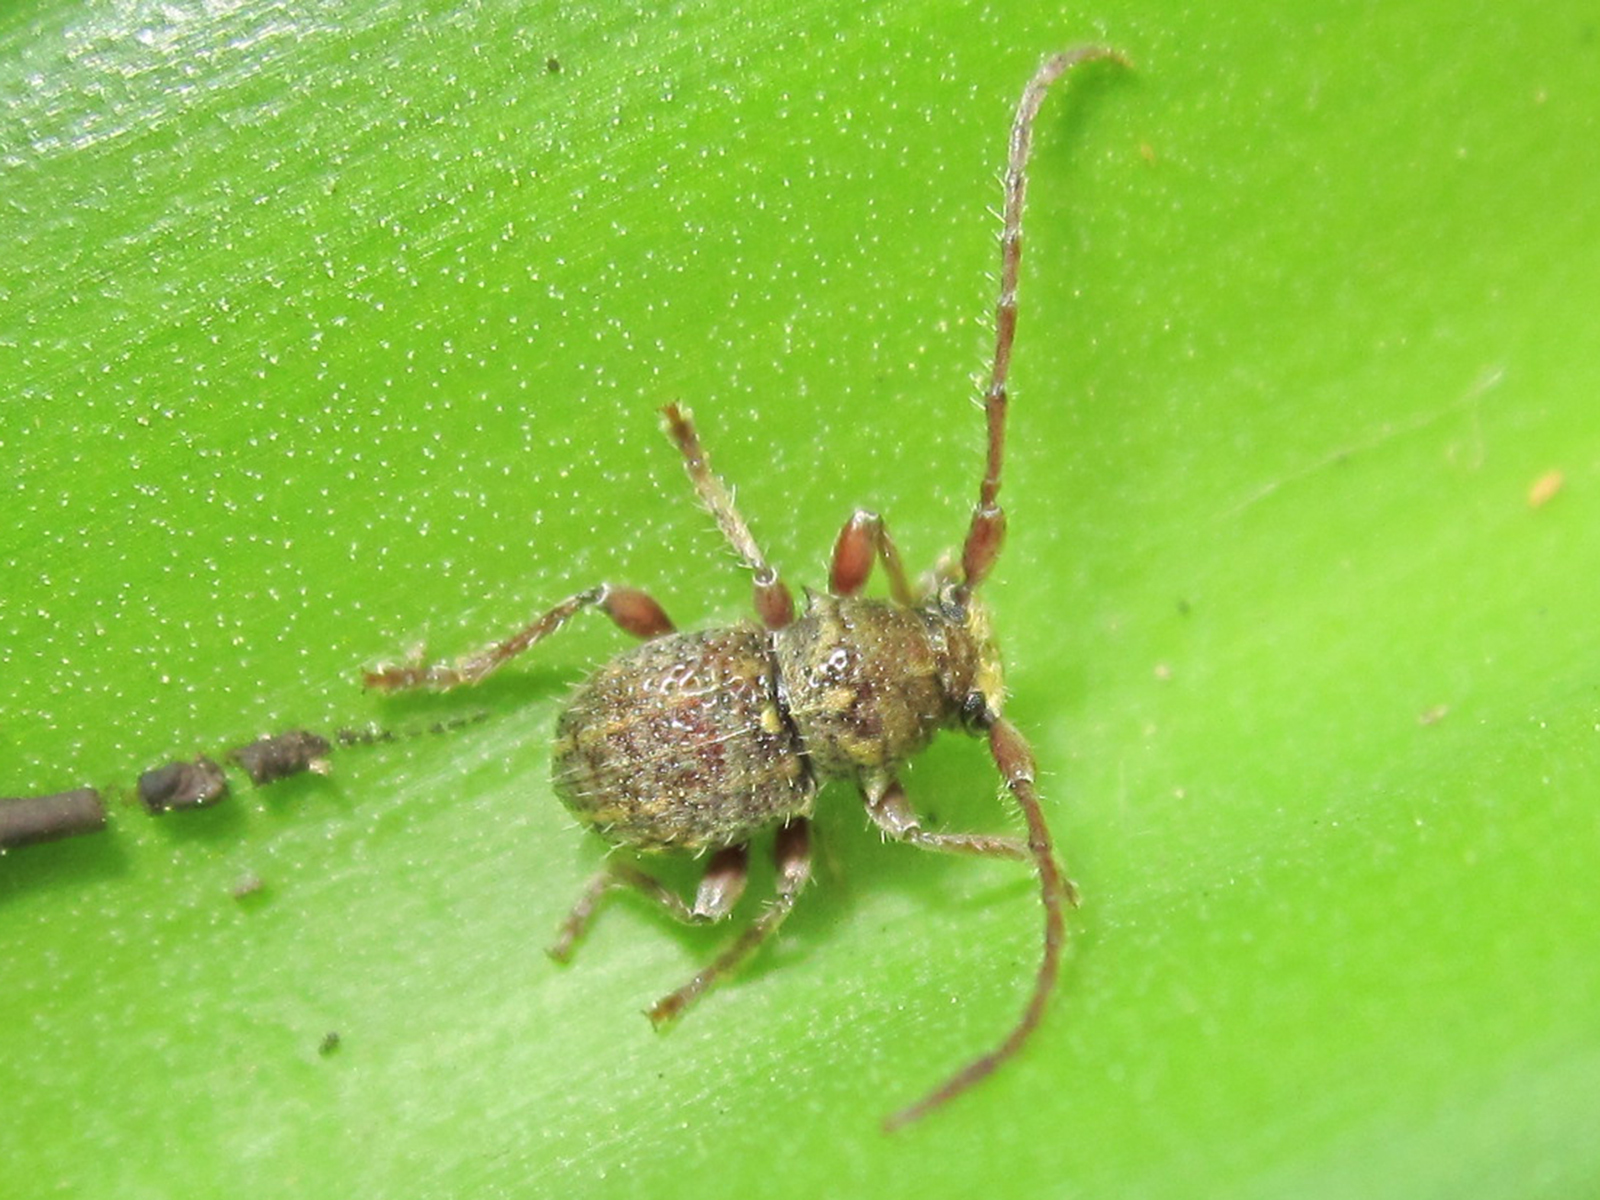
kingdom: Animalia
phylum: Arthropoda
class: Insecta
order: Coleoptera
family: Cerambycidae
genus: Microcleptes
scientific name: Microcleptes aranea
